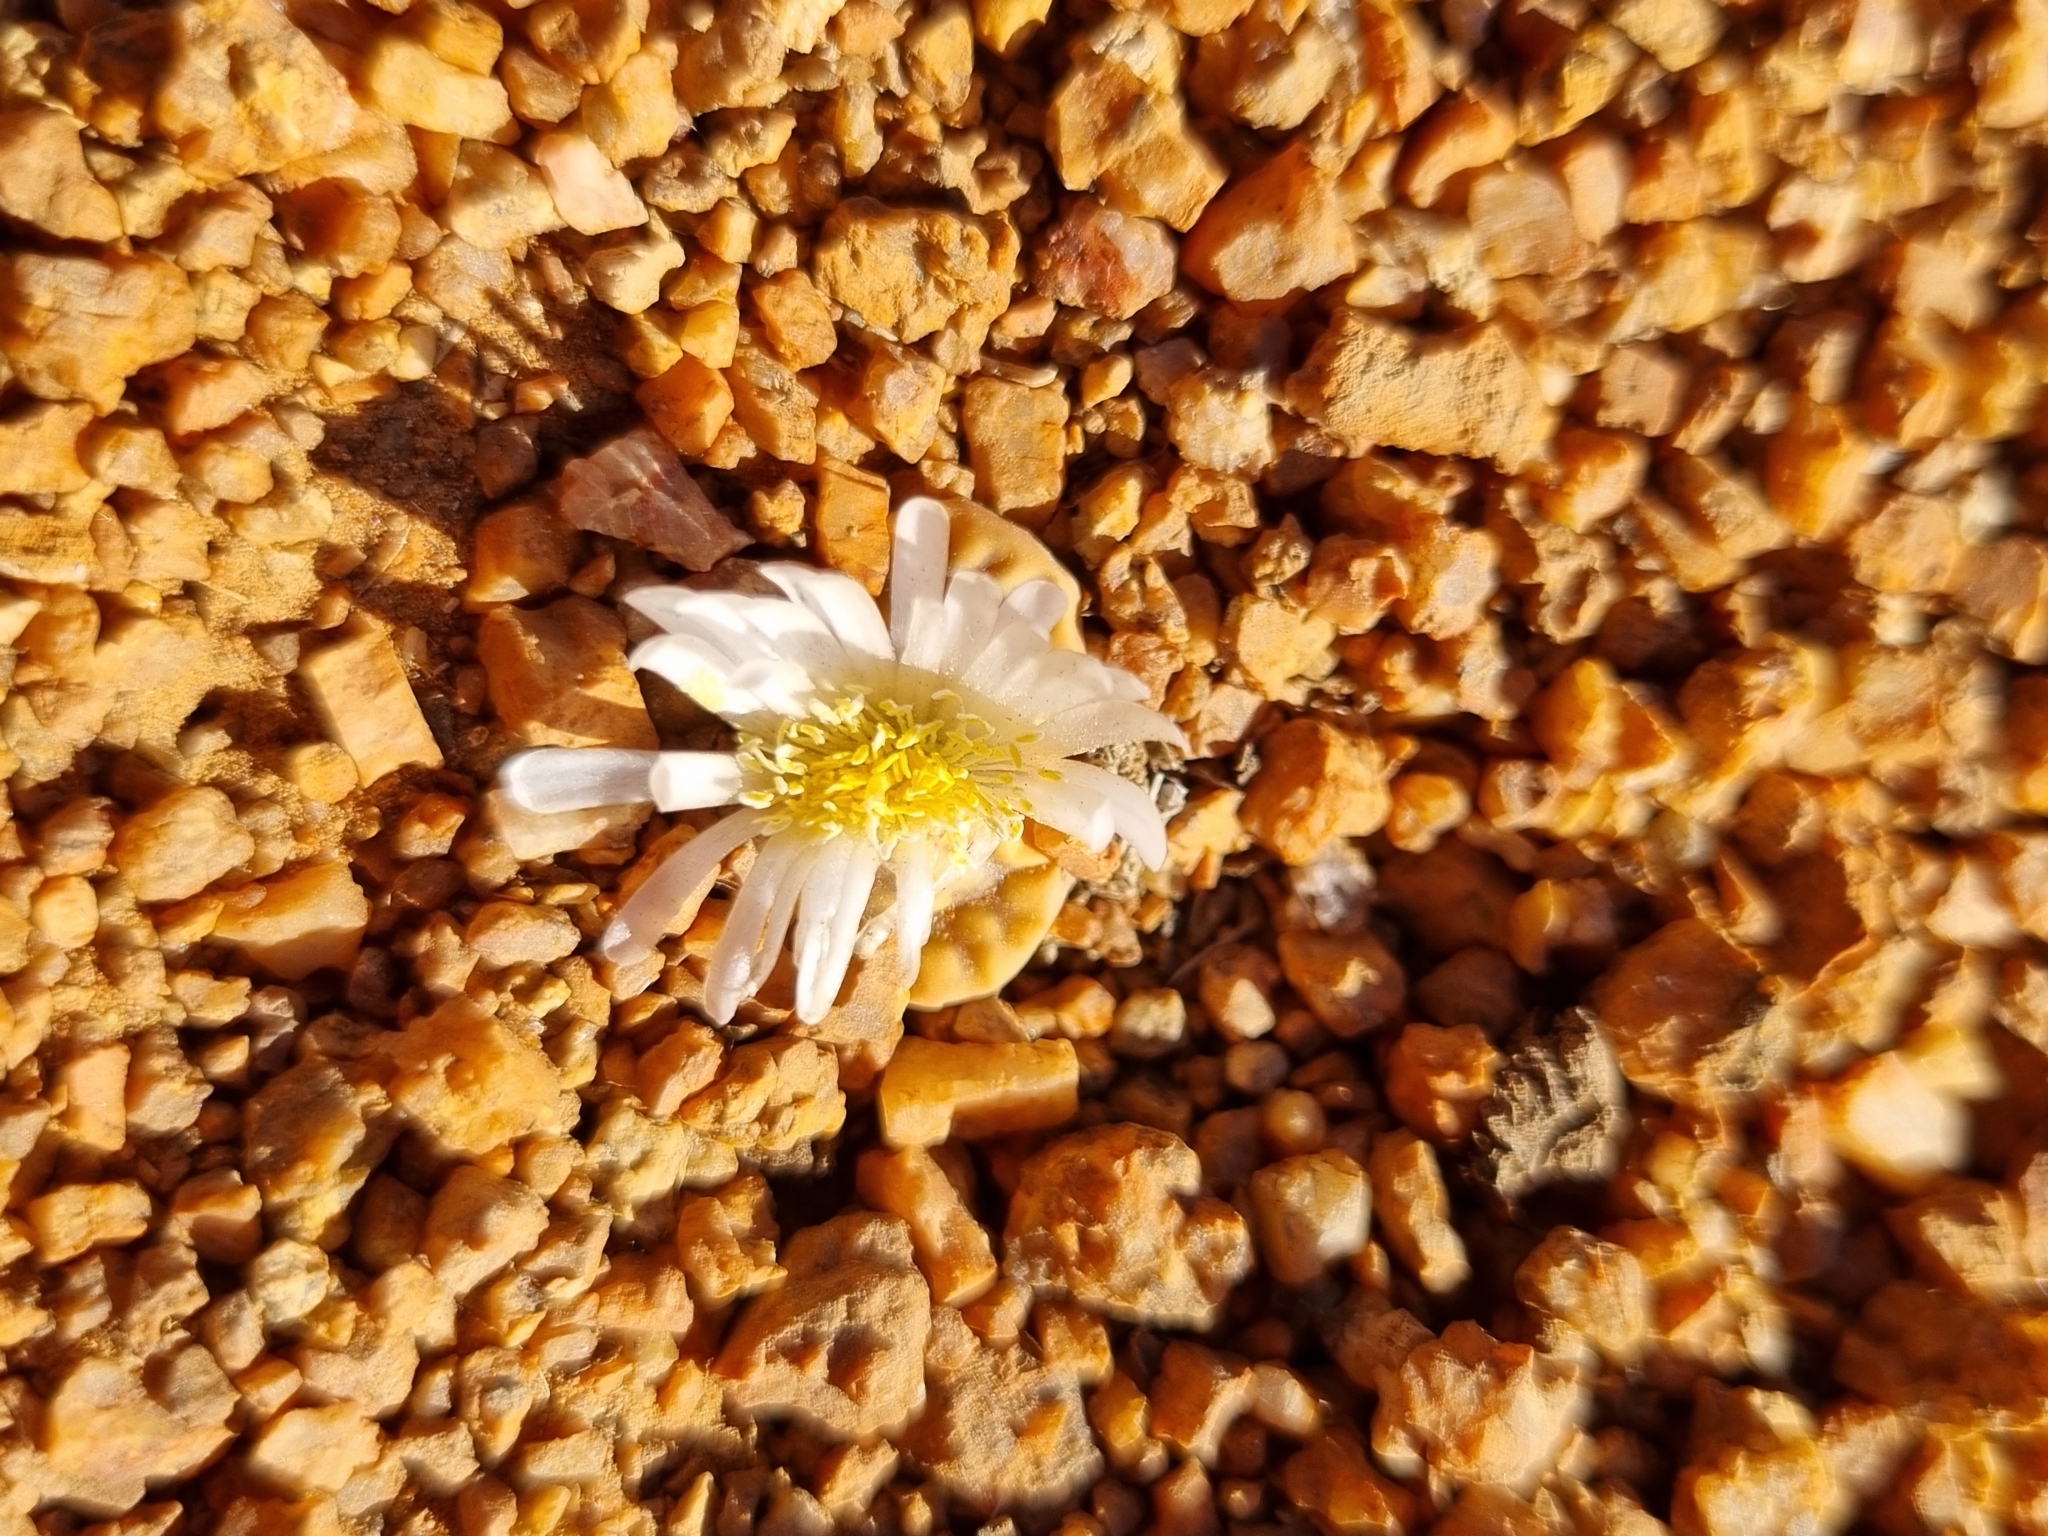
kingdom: Plantae
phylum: Tracheophyta
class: Magnoliopsida
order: Caryophyllales
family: Aizoaceae
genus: Lithops
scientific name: Lithops karasmontana
